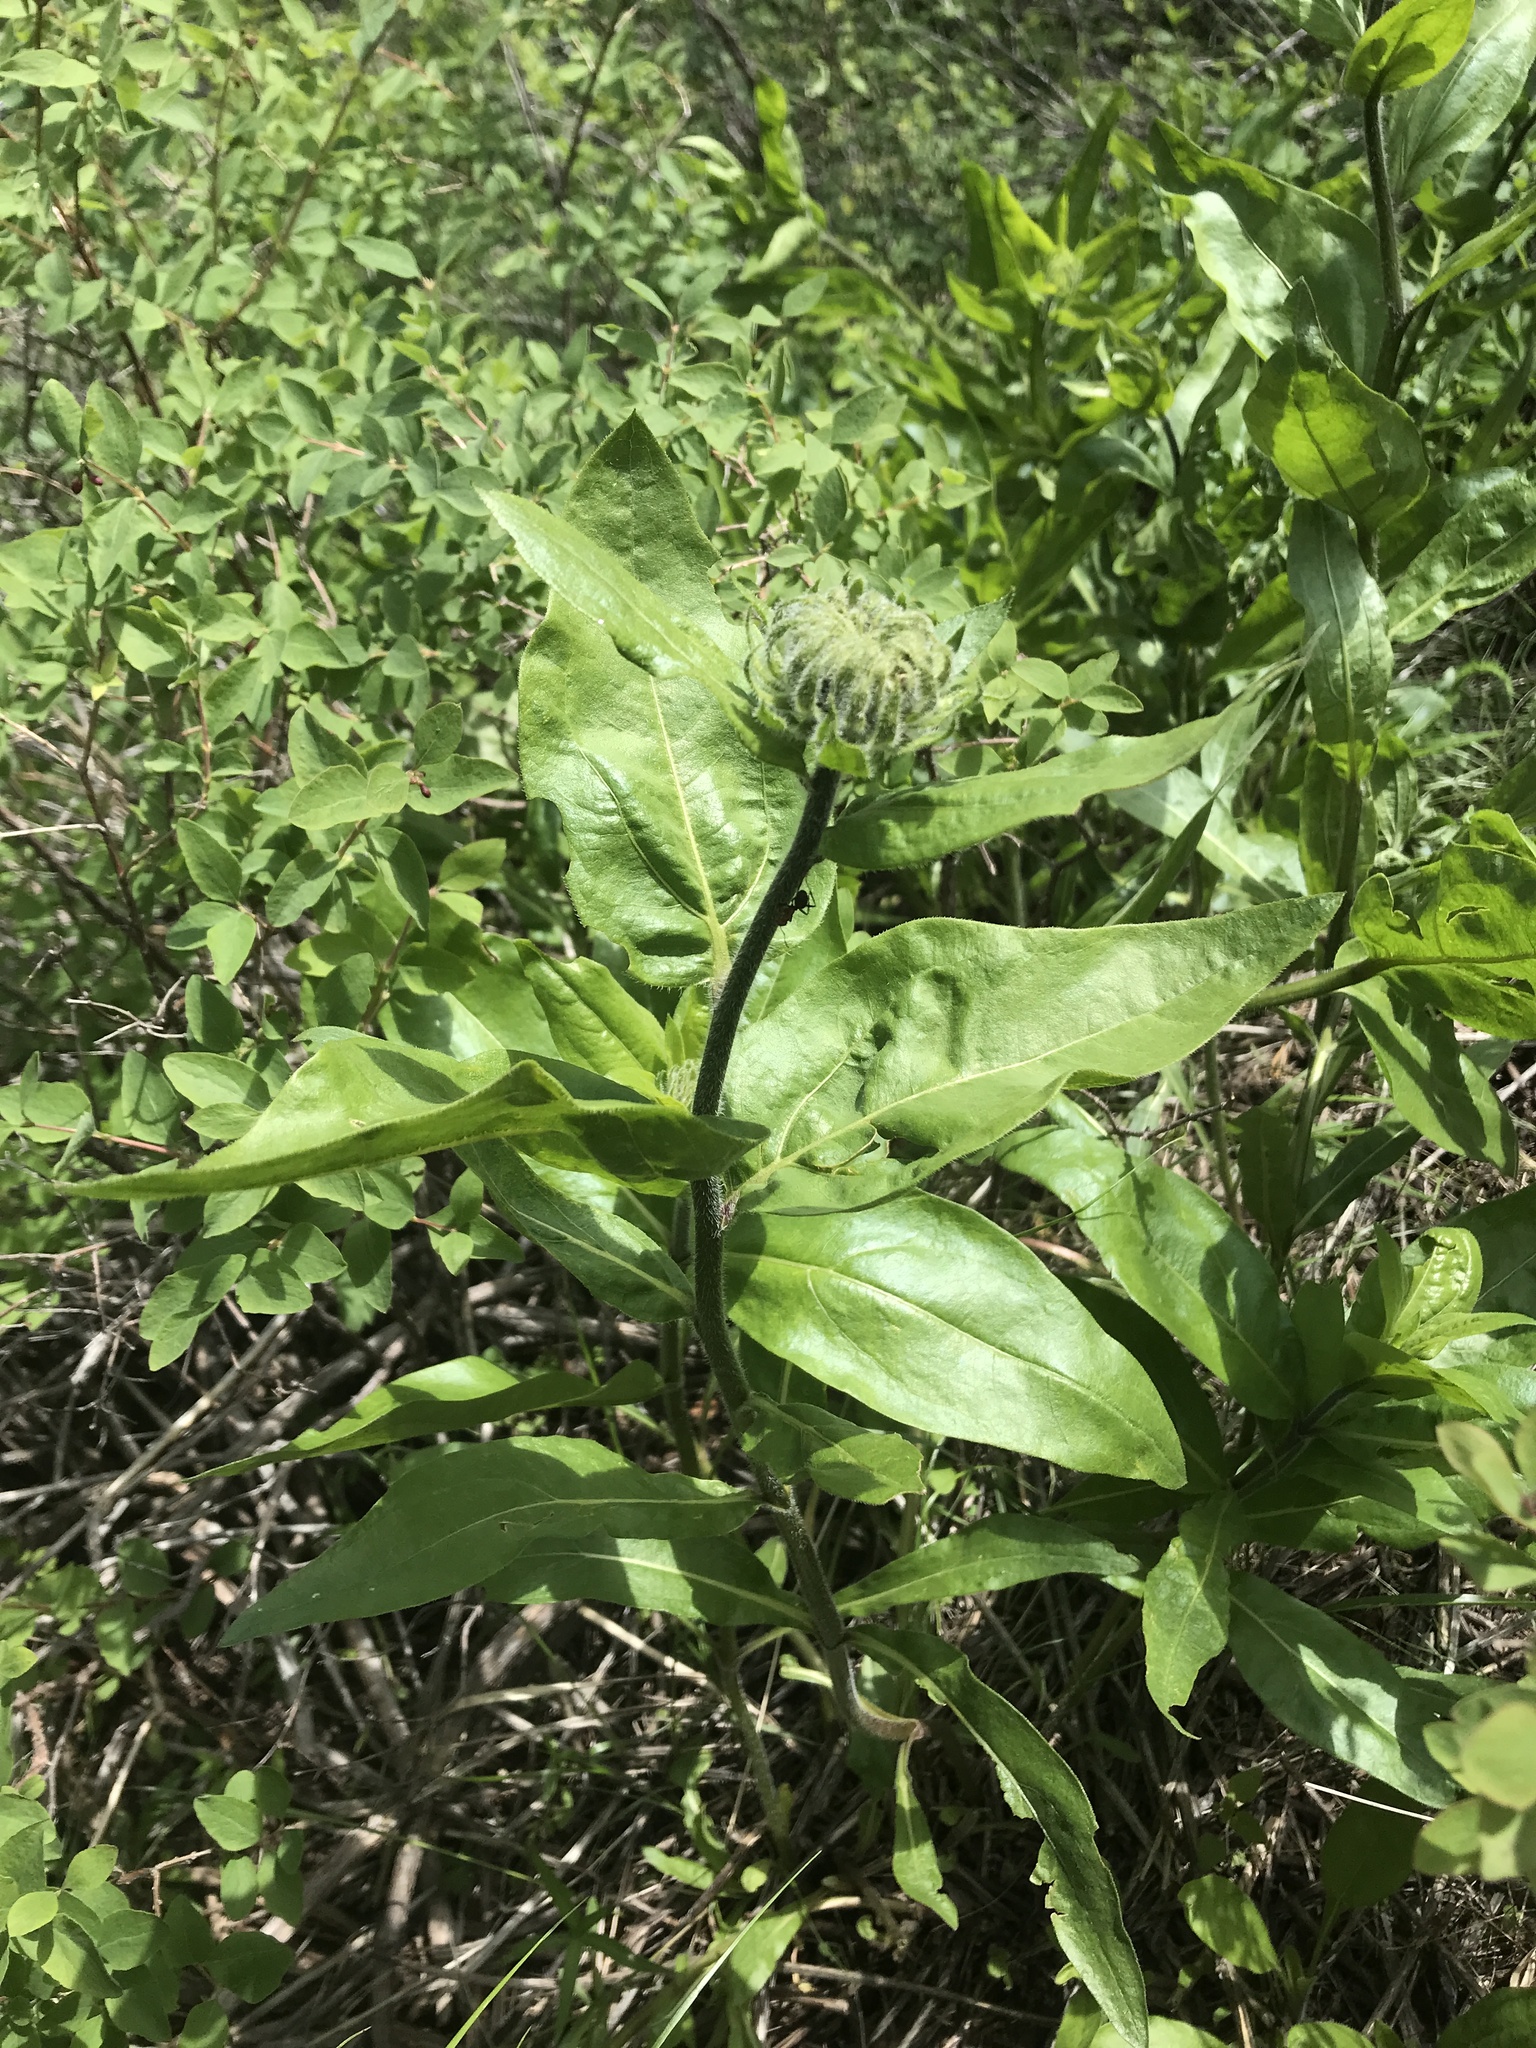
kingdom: Plantae
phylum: Tracheophyta
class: Magnoliopsida
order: Asterales
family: Asteraceae
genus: Helianthella
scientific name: Helianthella uniflora
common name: Rocky mountain dwarf sunflower
